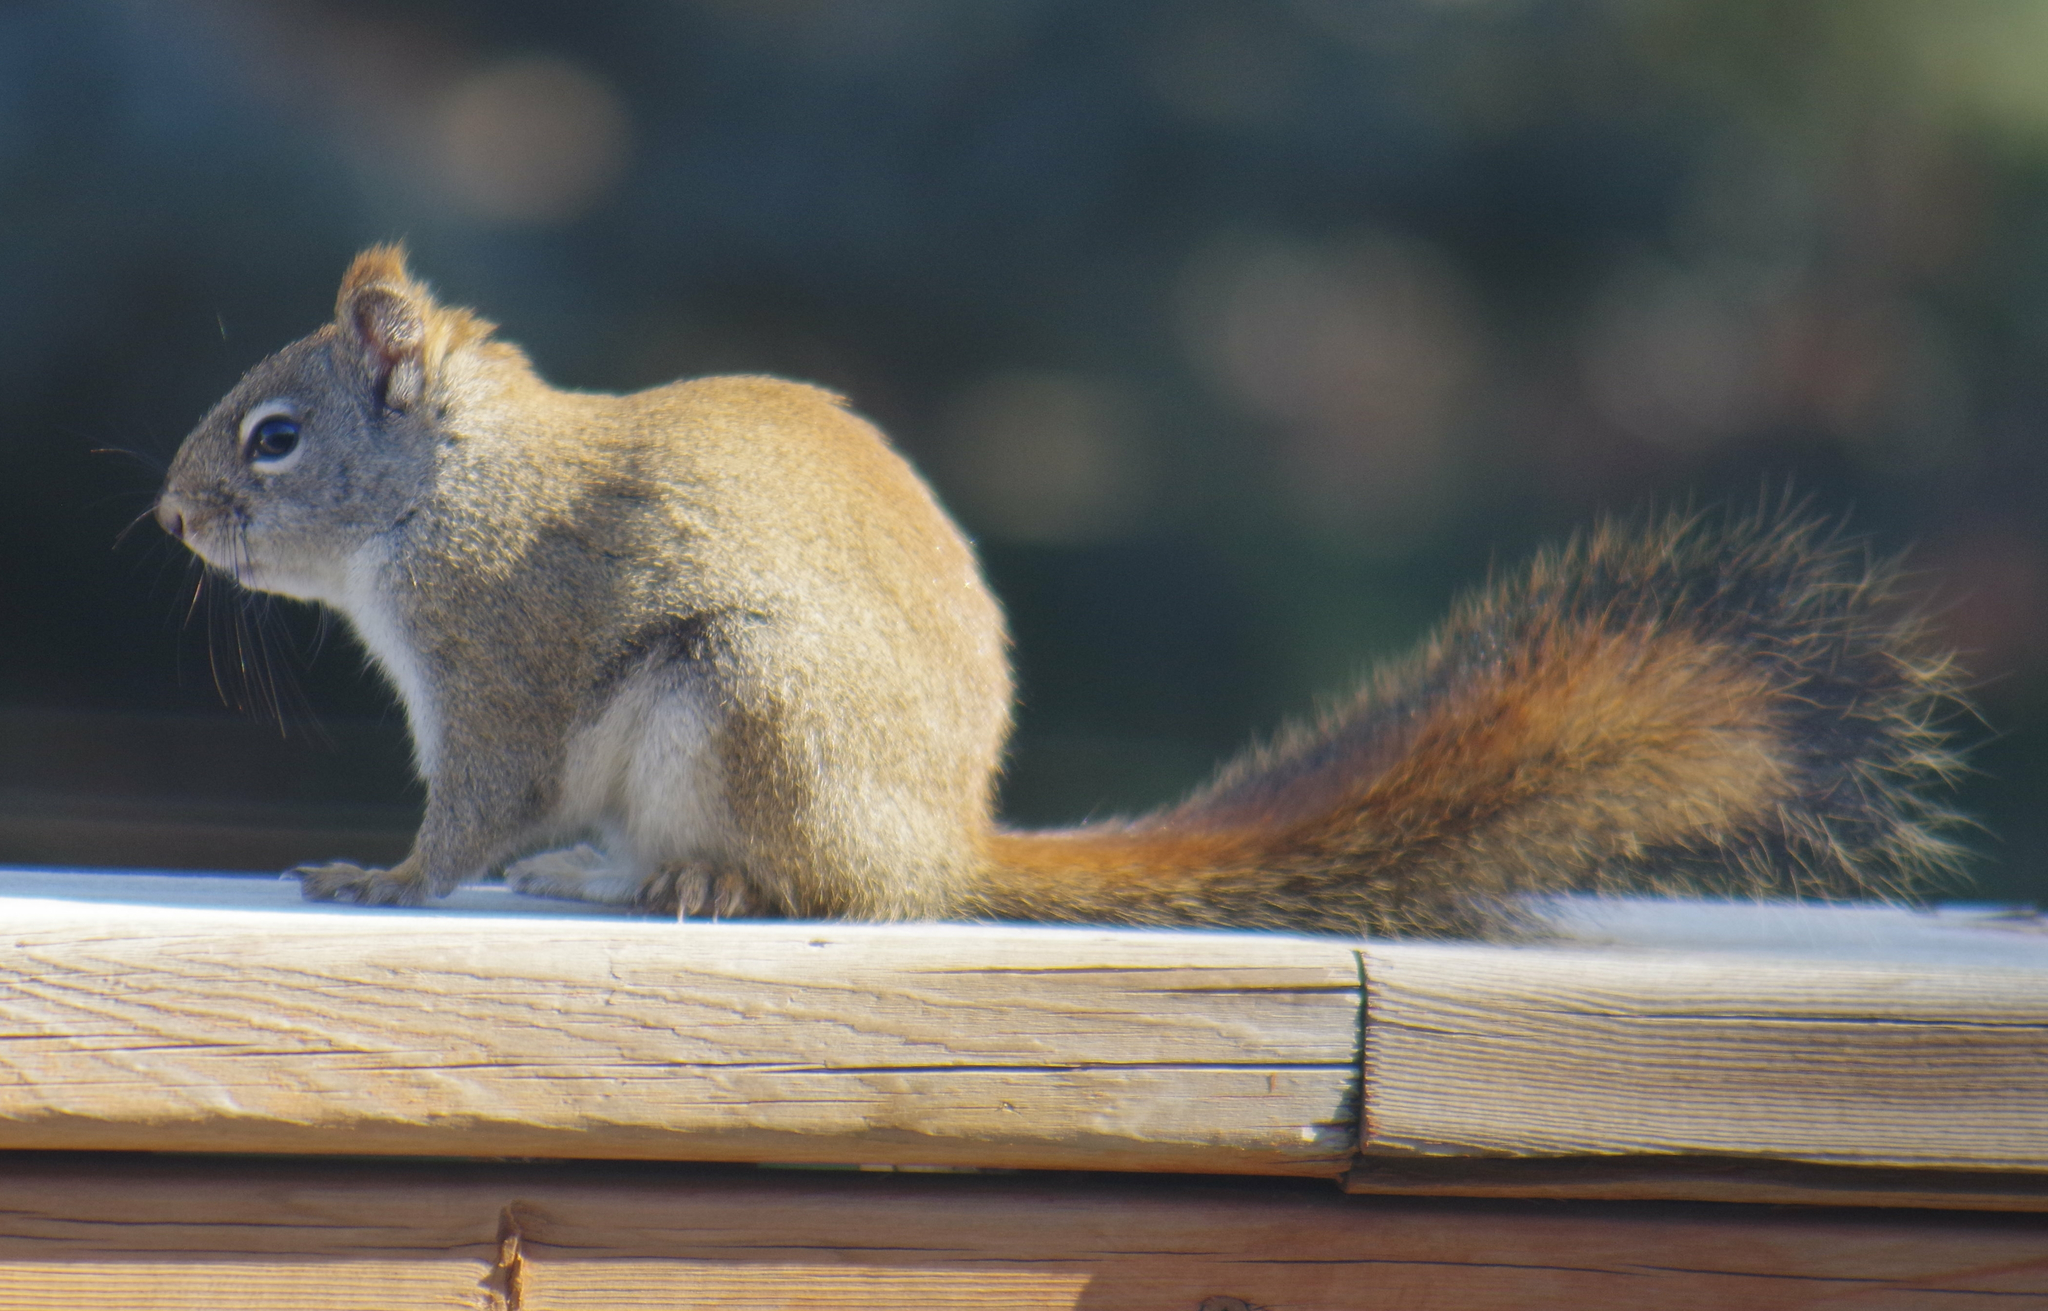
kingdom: Animalia
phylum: Chordata
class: Mammalia
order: Rodentia
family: Sciuridae
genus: Tamiasciurus
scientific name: Tamiasciurus hudsonicus
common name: Red squirrel
